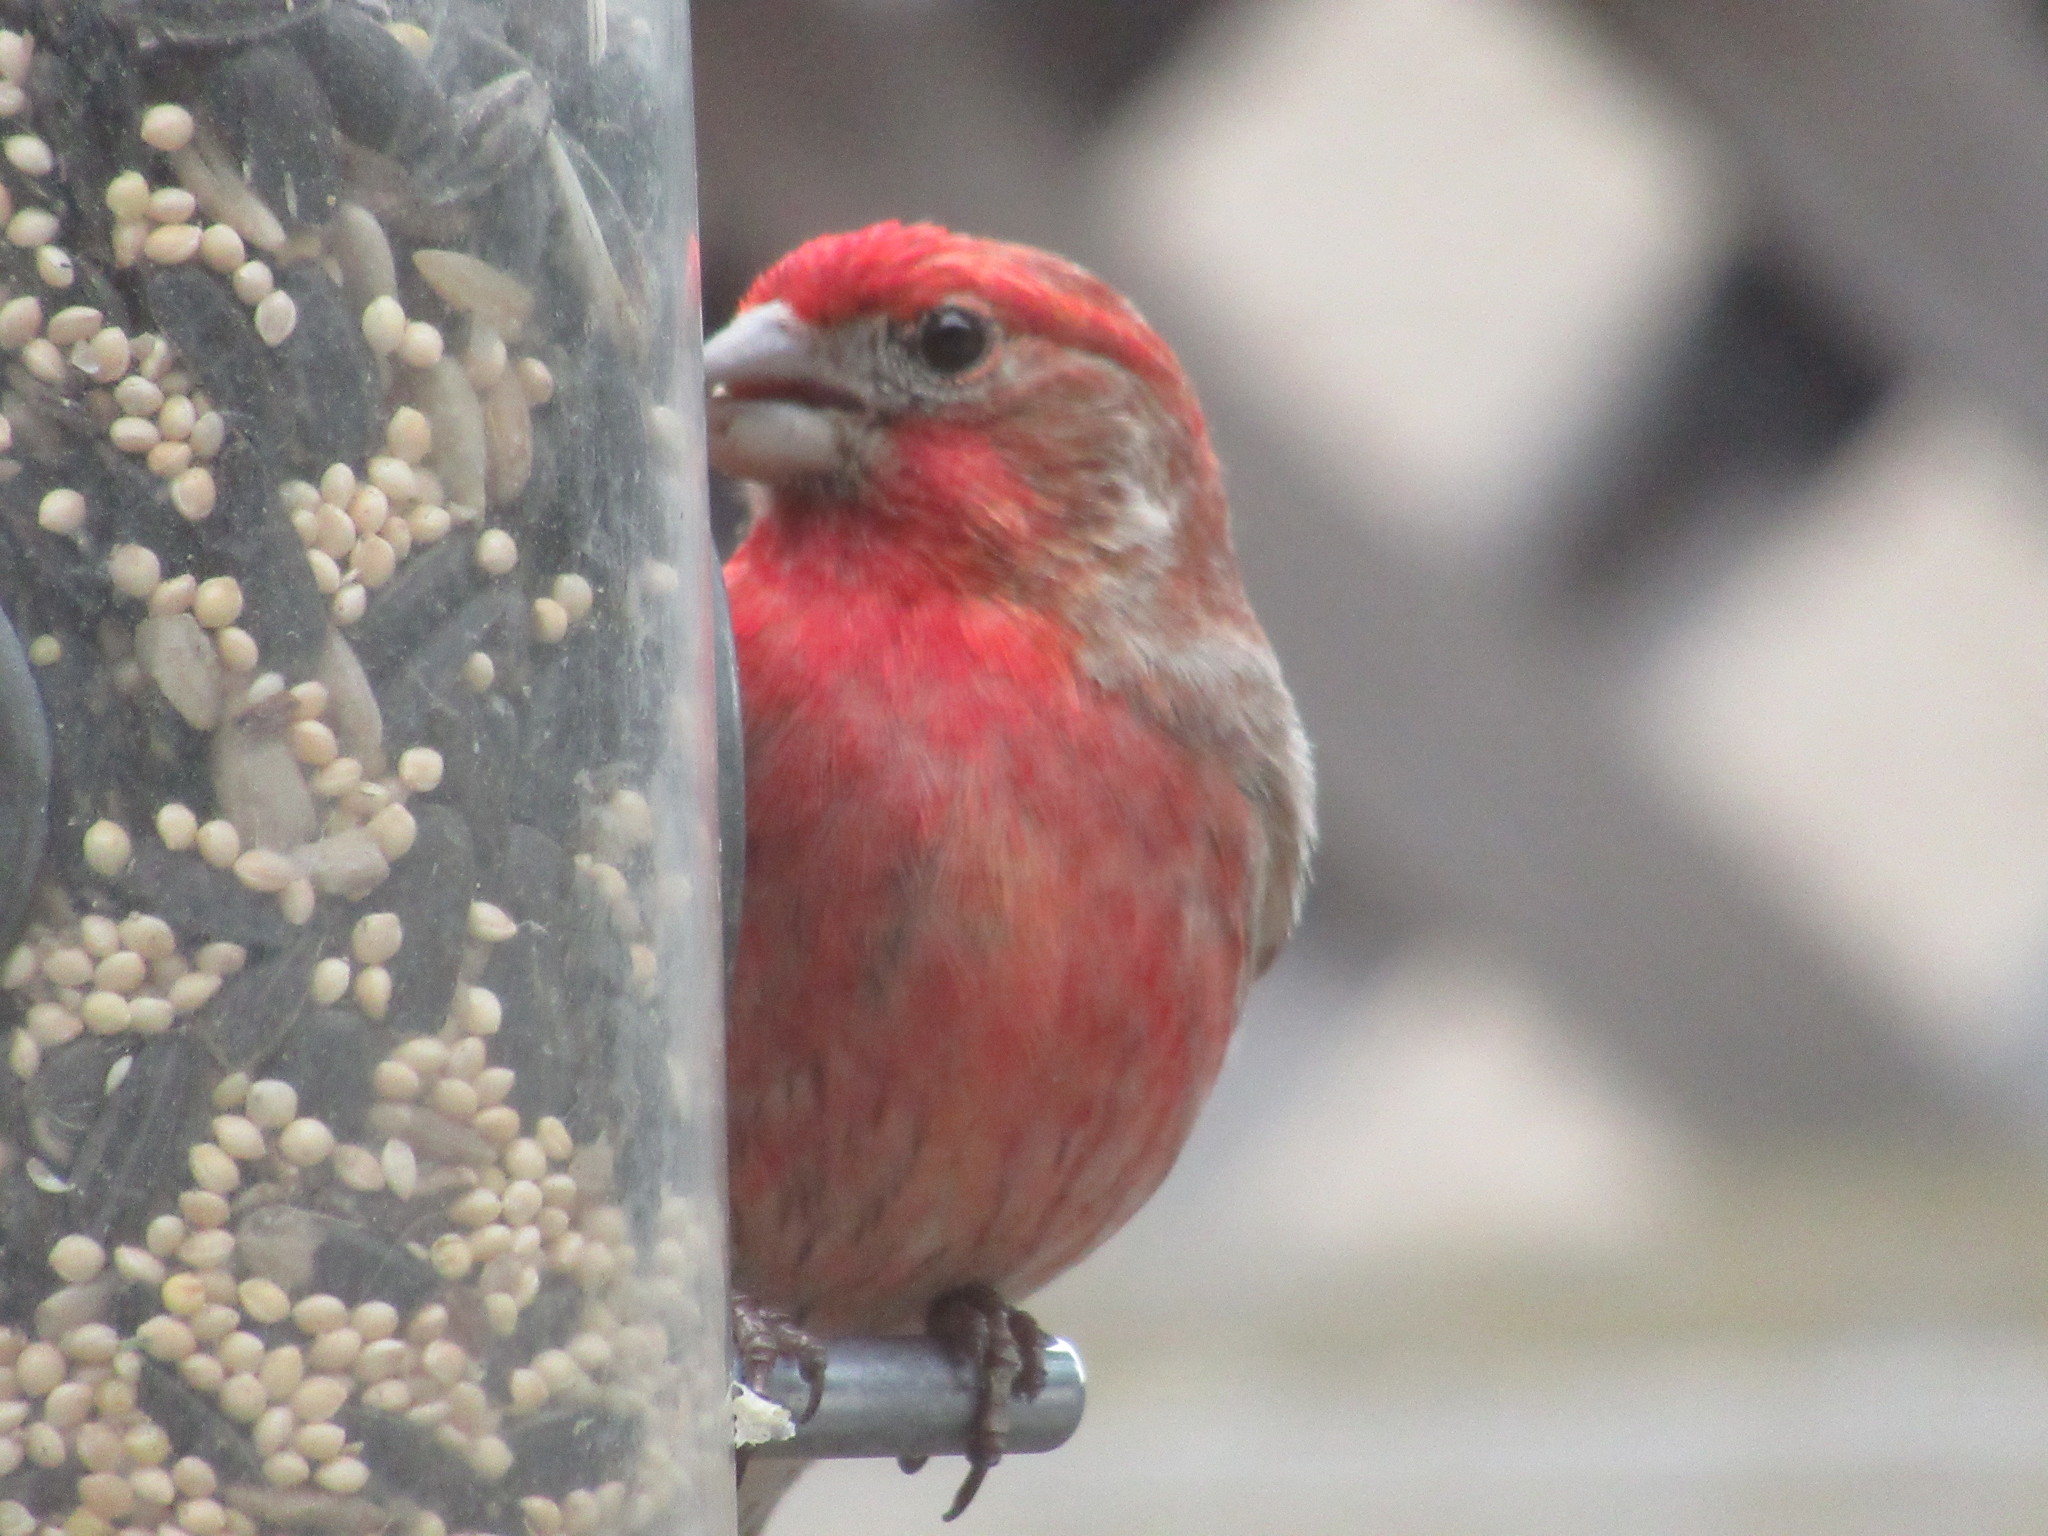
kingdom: Animalia
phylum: Chordata
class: Aves
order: Passeriformes
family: Fringillidae
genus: Haemorhous
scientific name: Haemorhous mexicanus
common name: House finch
